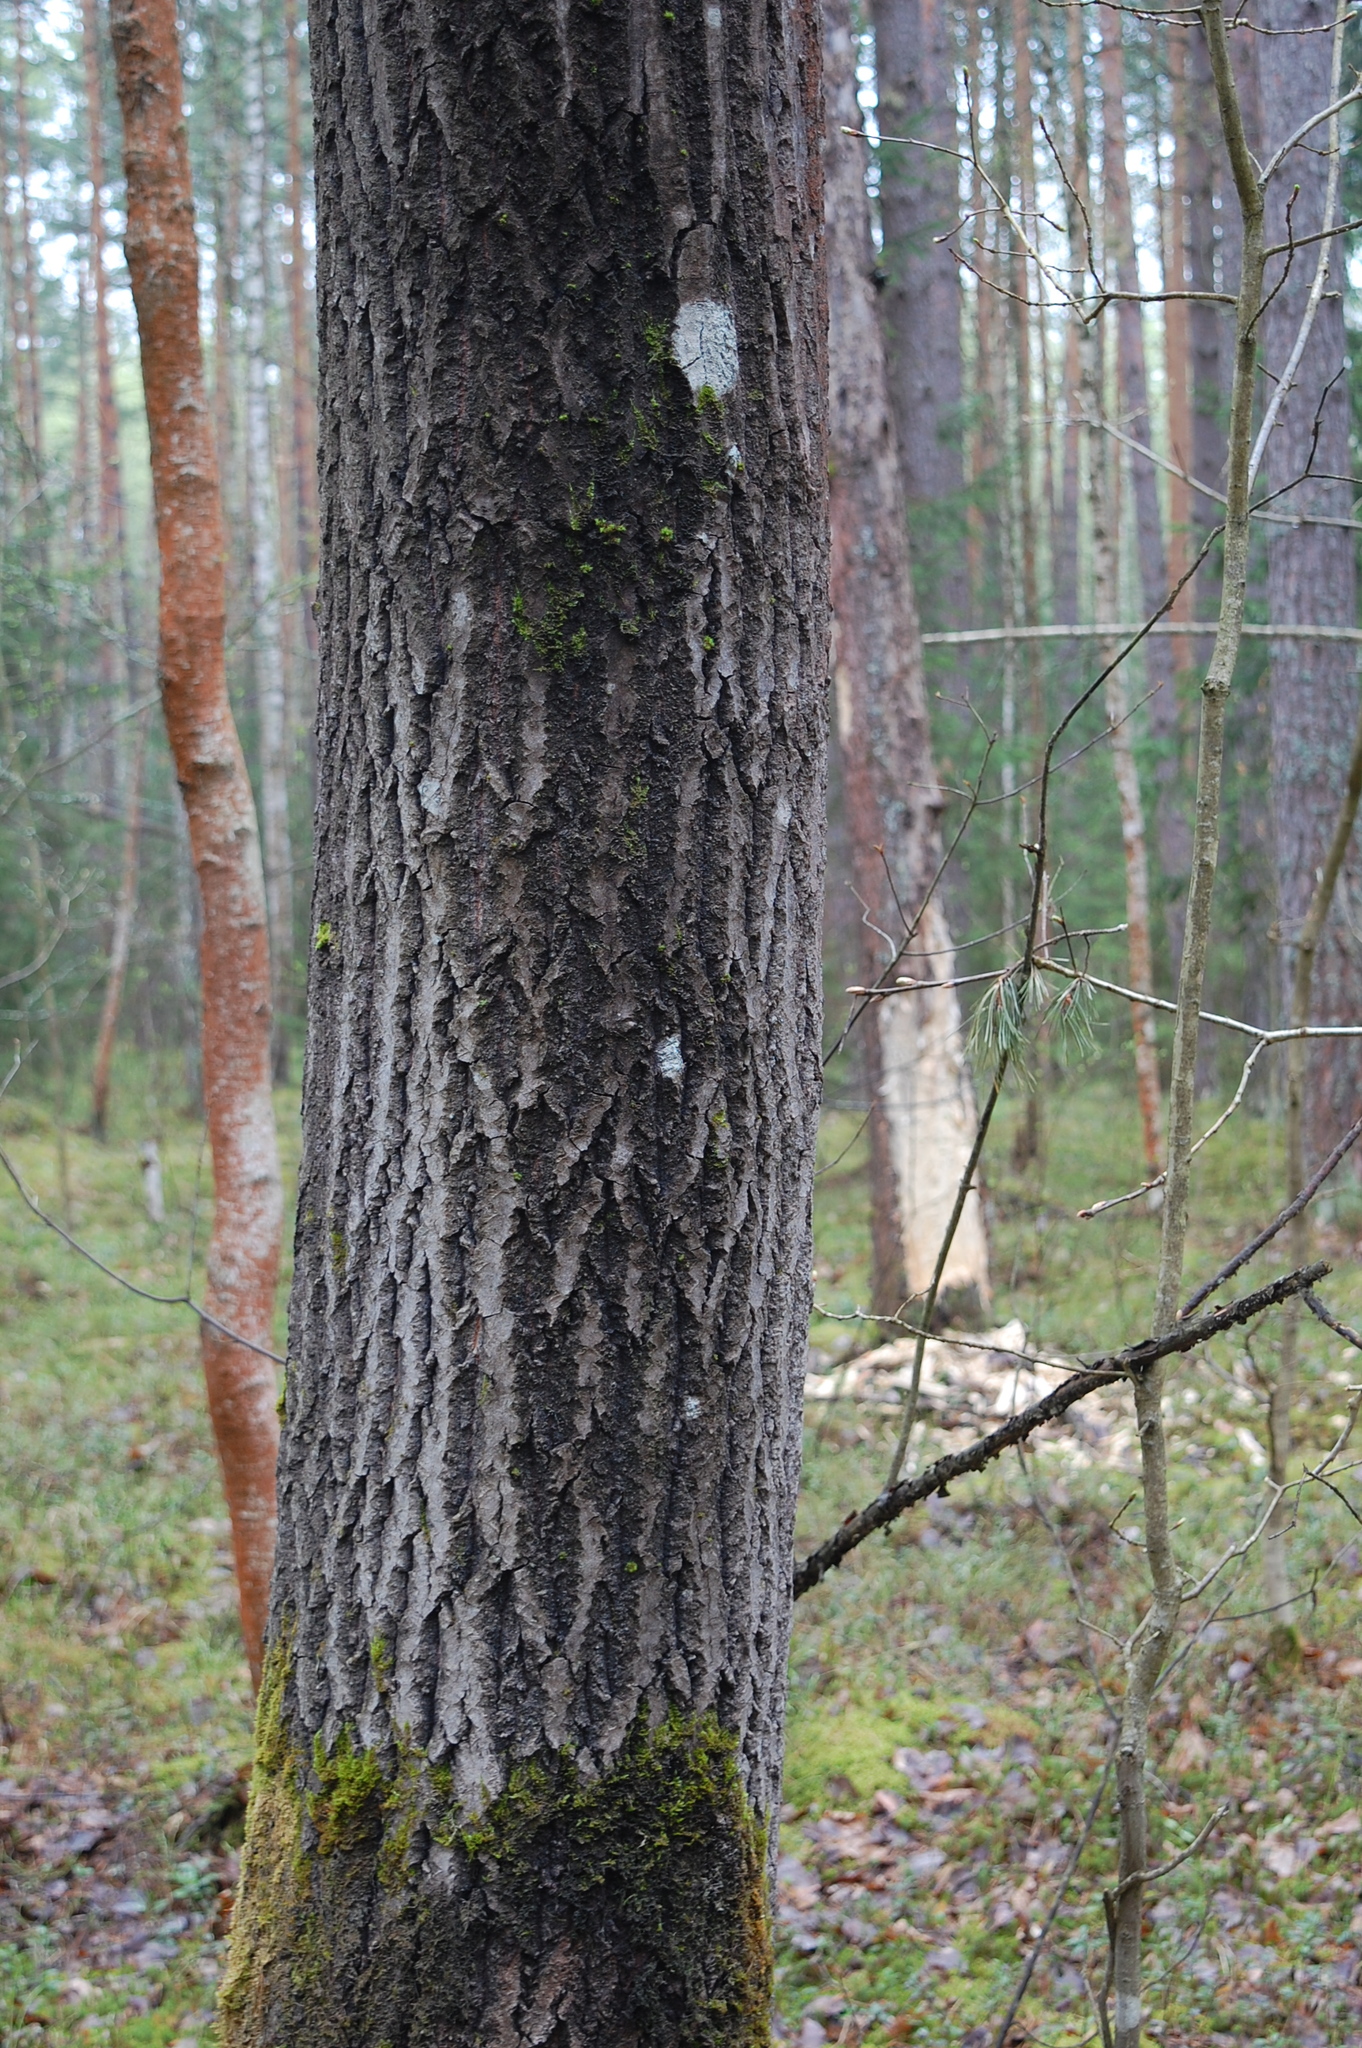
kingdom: Plantae
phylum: Tracheophyta
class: Magnoliopsida
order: Malpighiales
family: Salicaceae
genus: Populus
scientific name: Populus tremula
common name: European aspen
